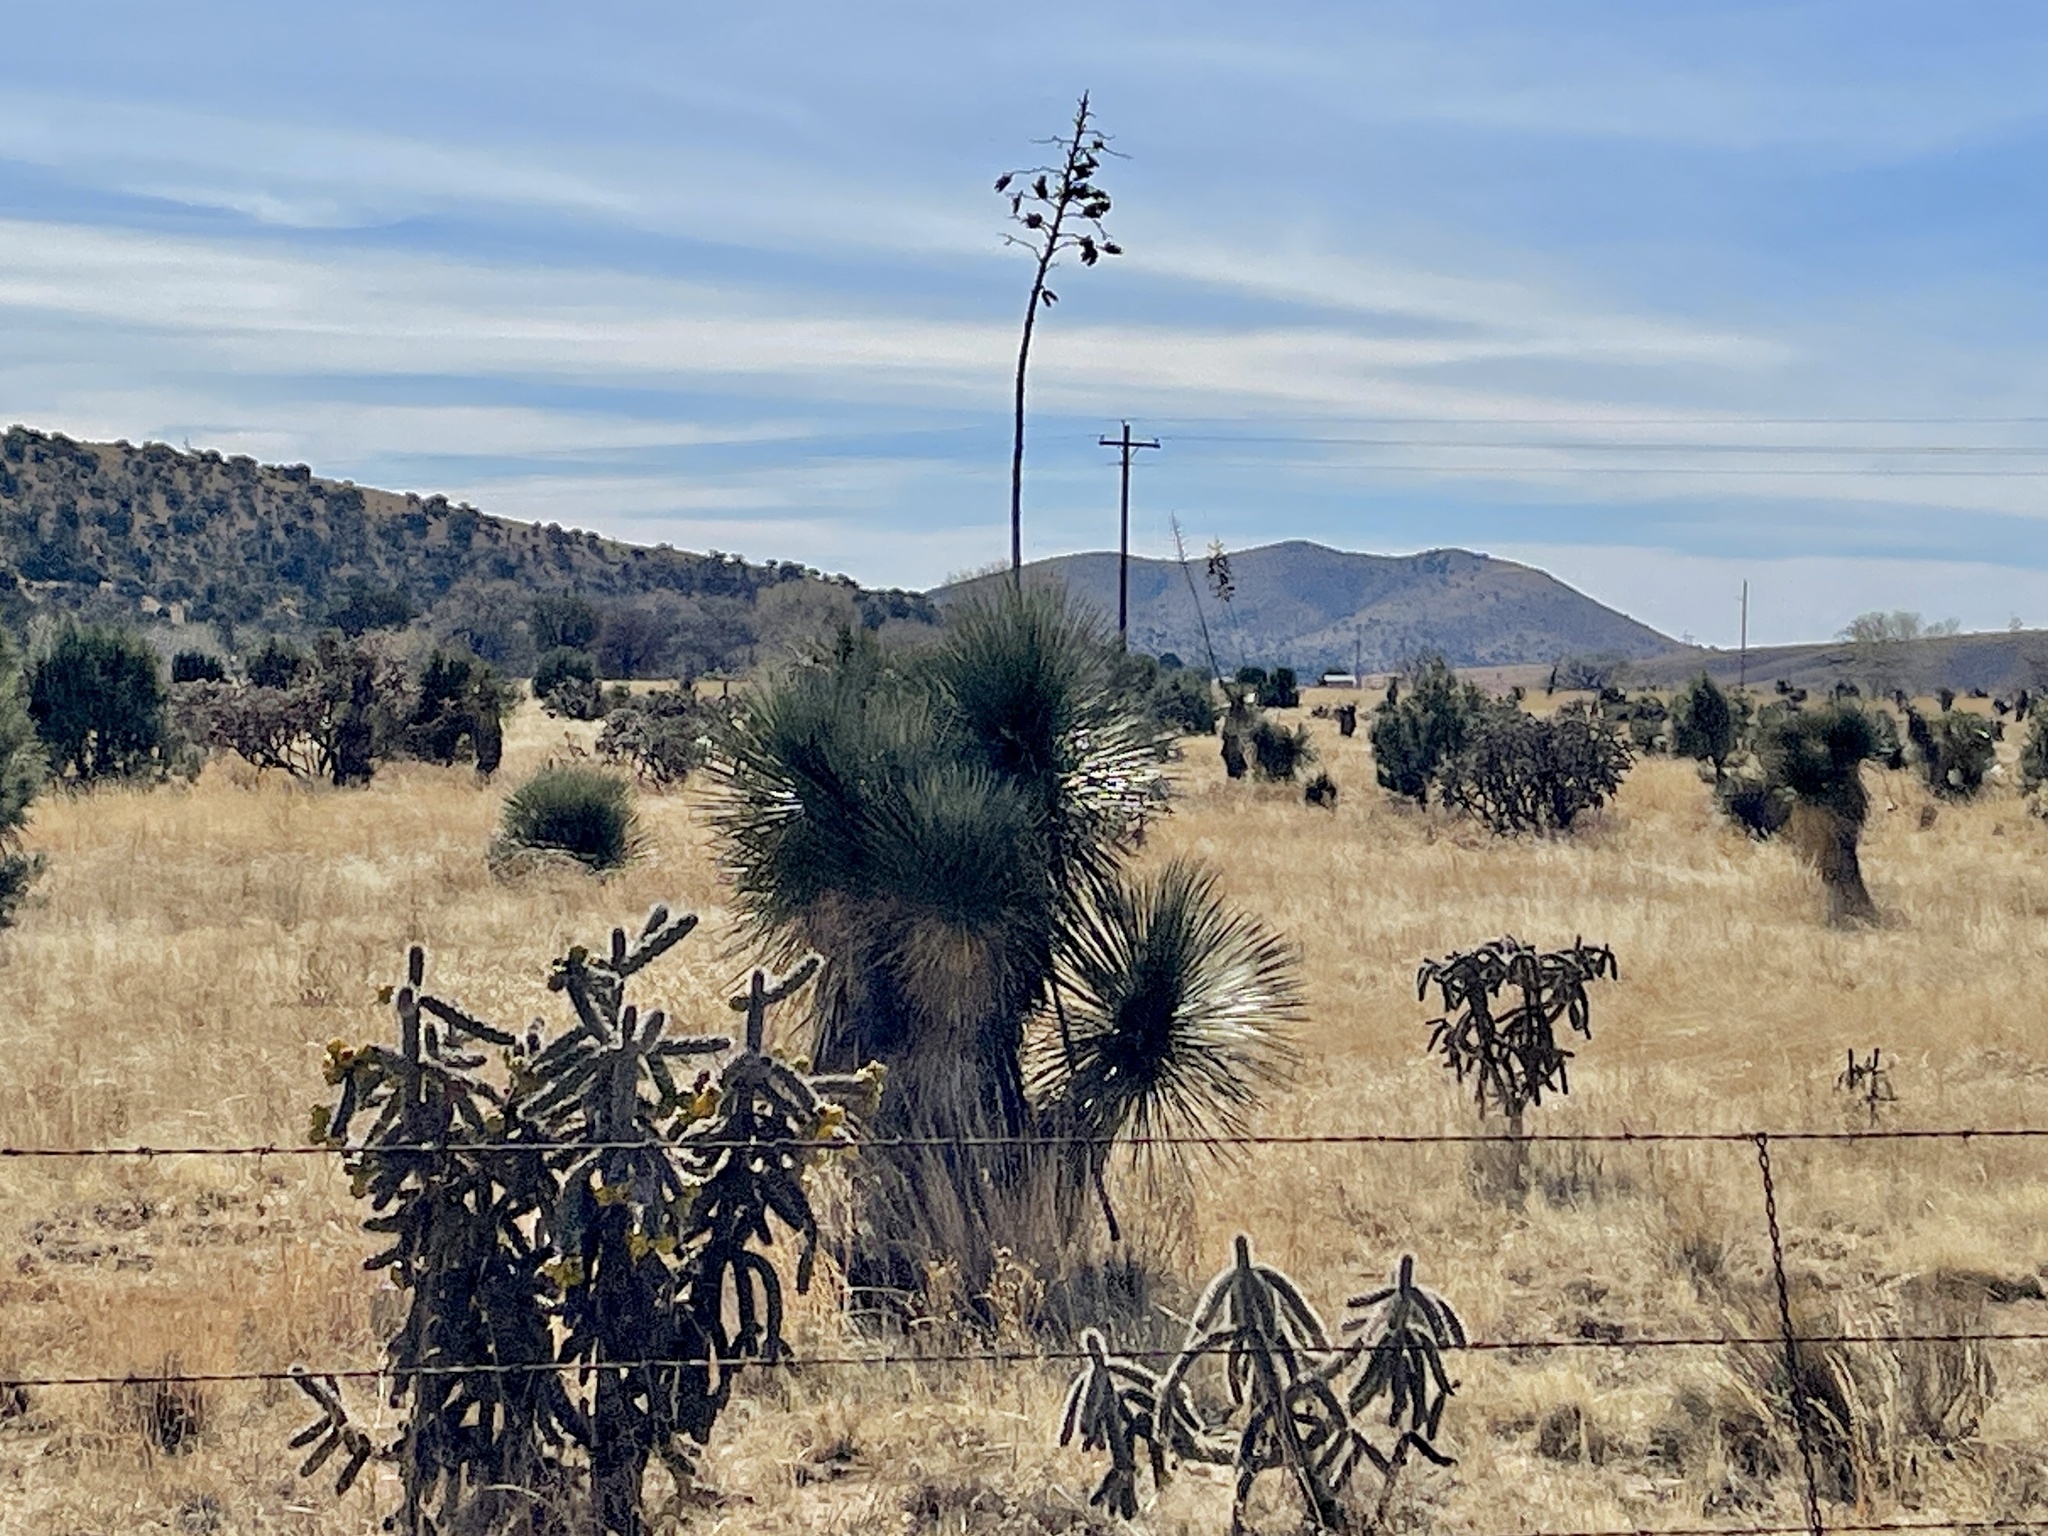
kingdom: Plantae
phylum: Tracheophyta
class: Liliopsida
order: Asparagales
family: Asparagaceae
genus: Yucca
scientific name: Yucca elata
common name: Palmella
